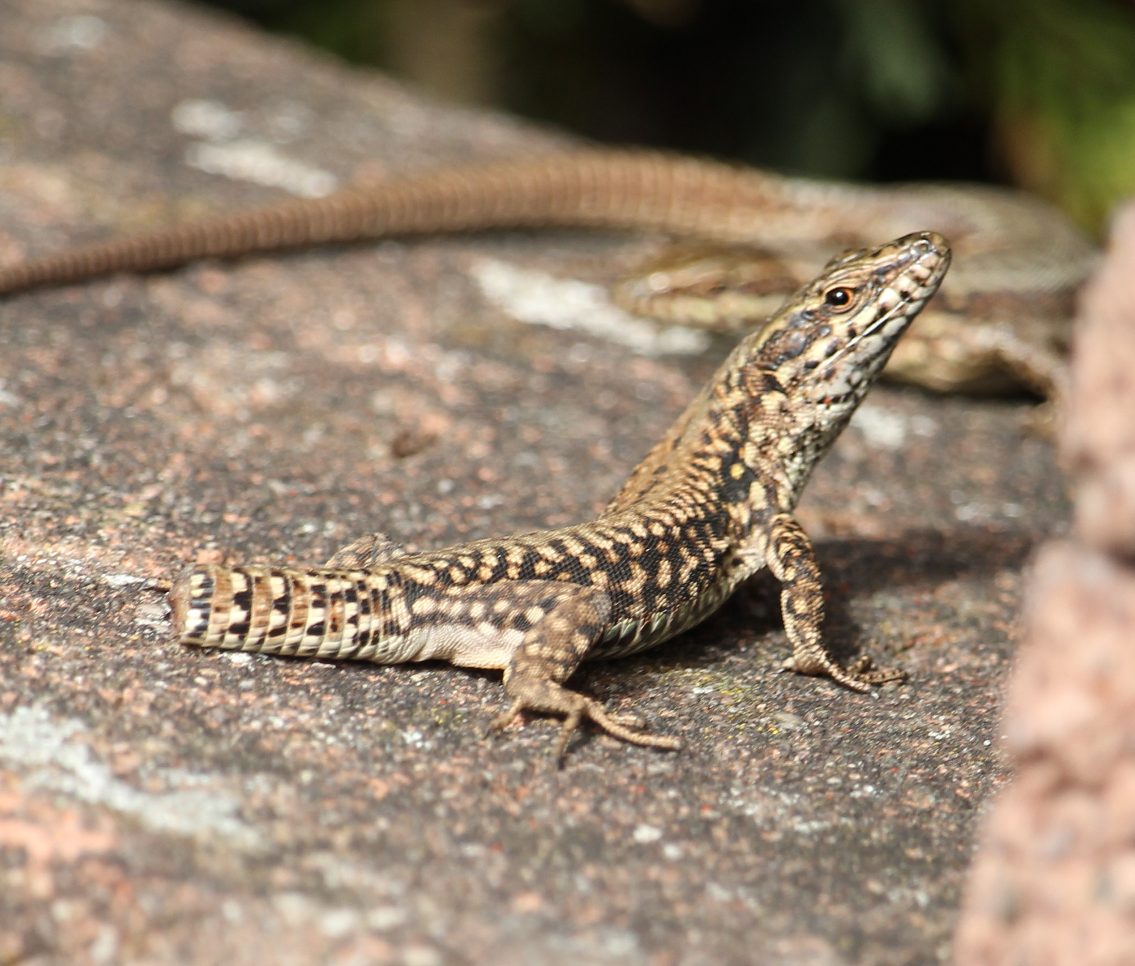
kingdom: Animalia
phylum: Chordata
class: Squamata
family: Lacertidae
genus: Podarcis
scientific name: Podarcis muralis
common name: Common wall lizard
